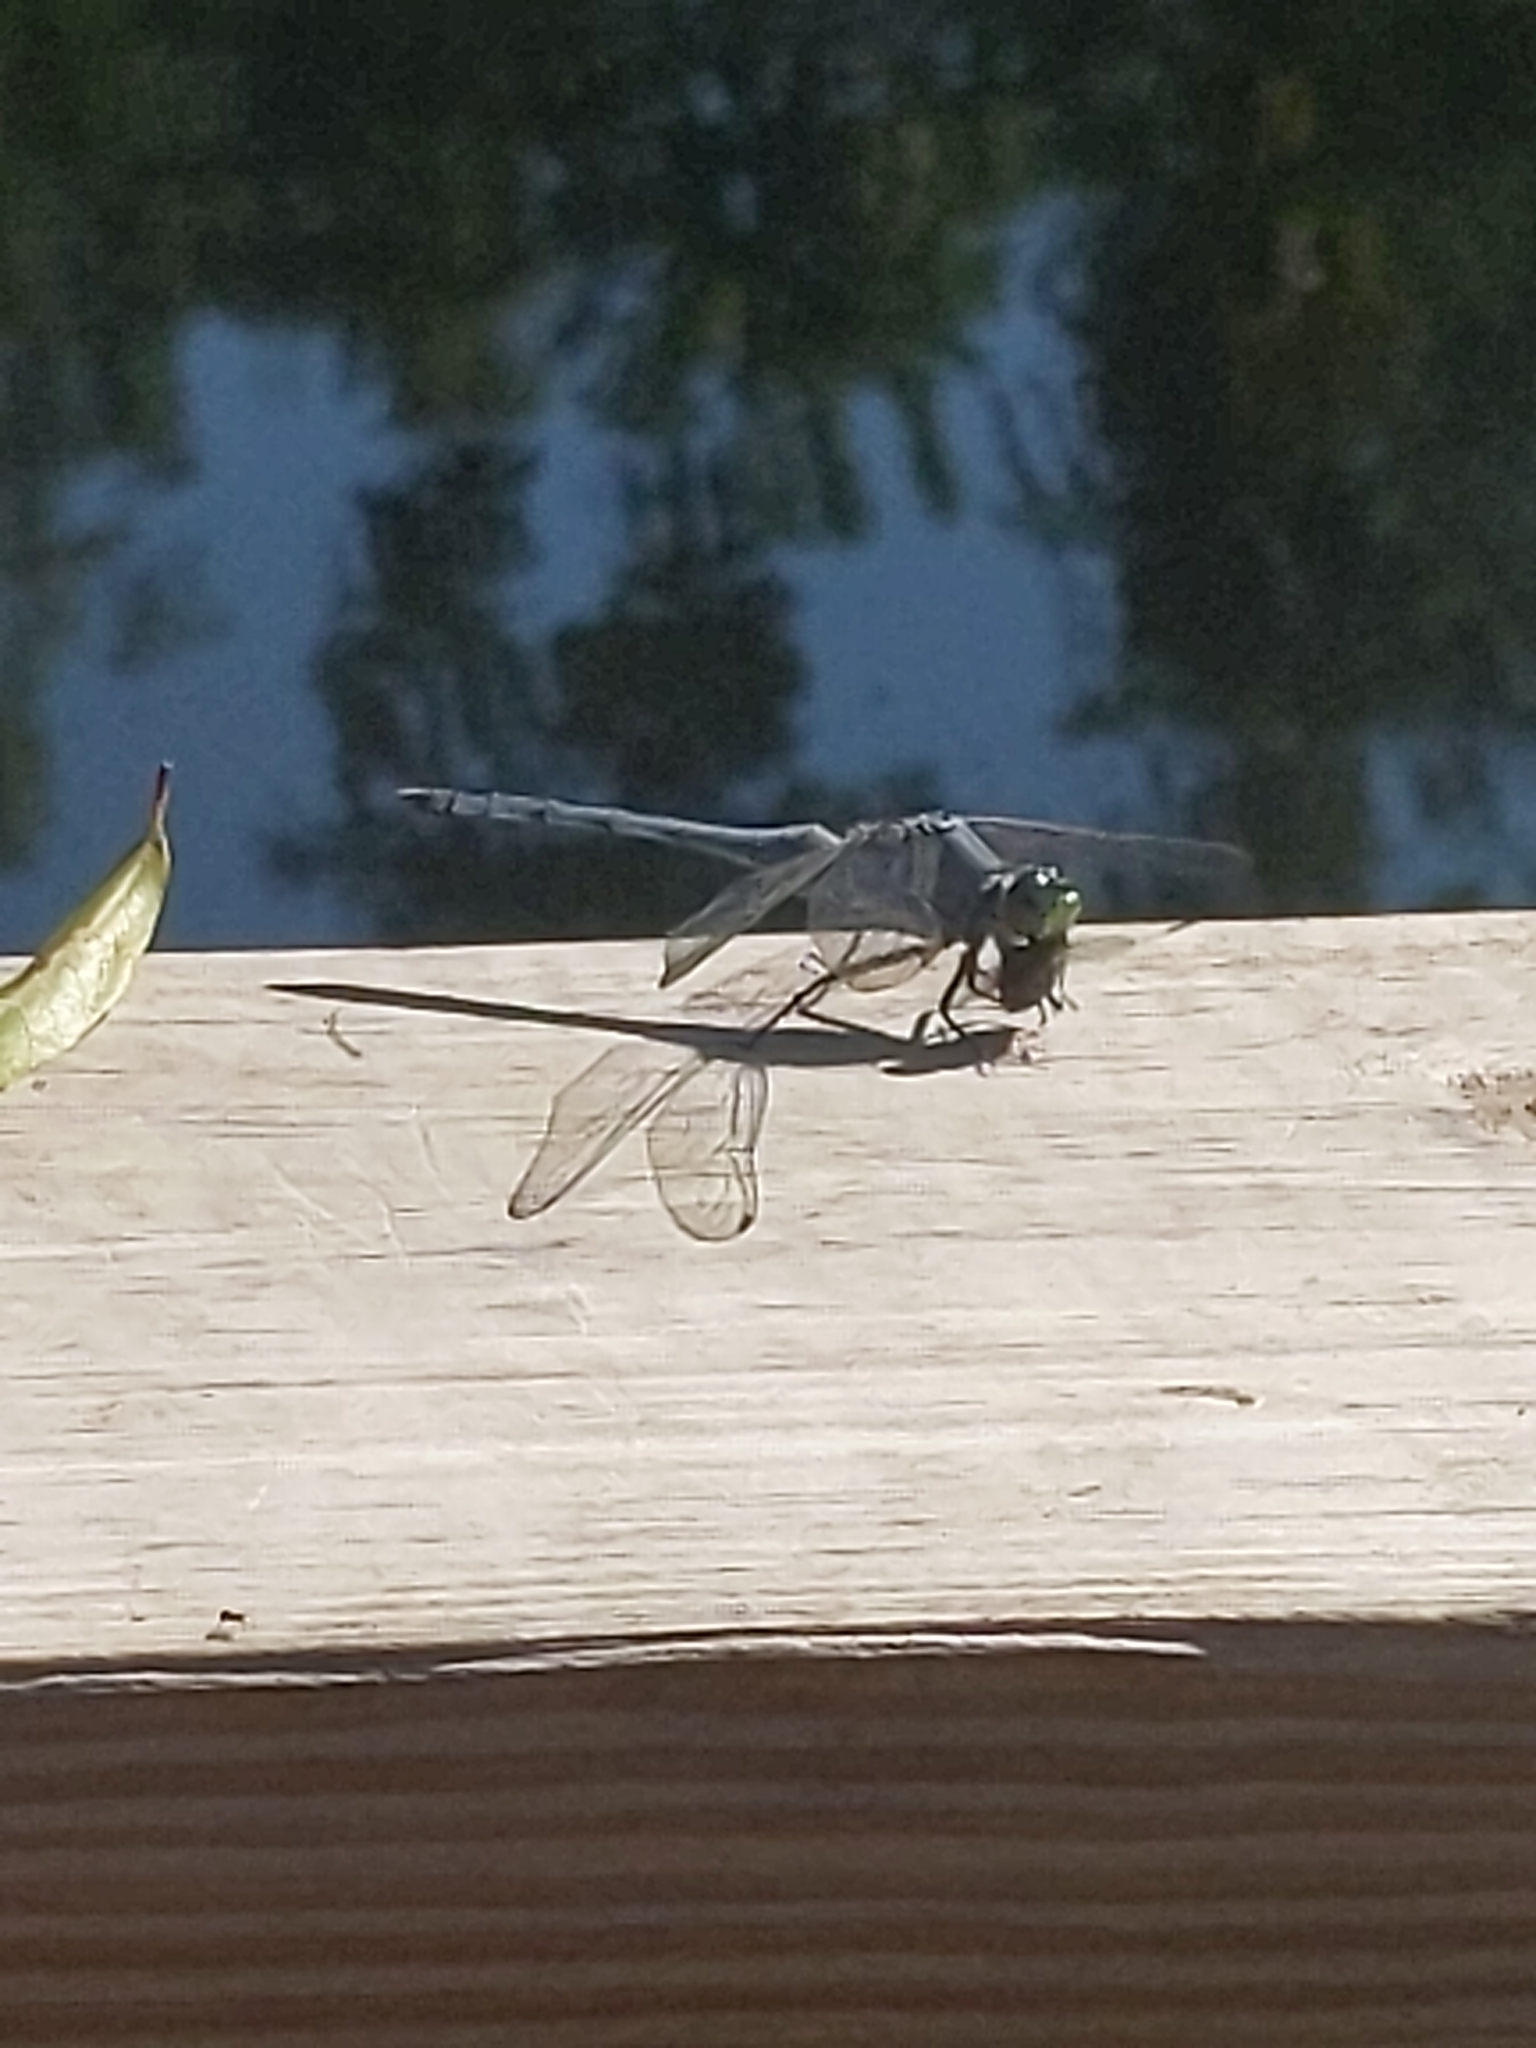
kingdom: Animalia
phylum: Arthropoda
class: Insecta
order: Odonata
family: Libellulidae
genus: Erythemis
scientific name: Erythemis simplicicollis
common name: Eastern pondhawk
